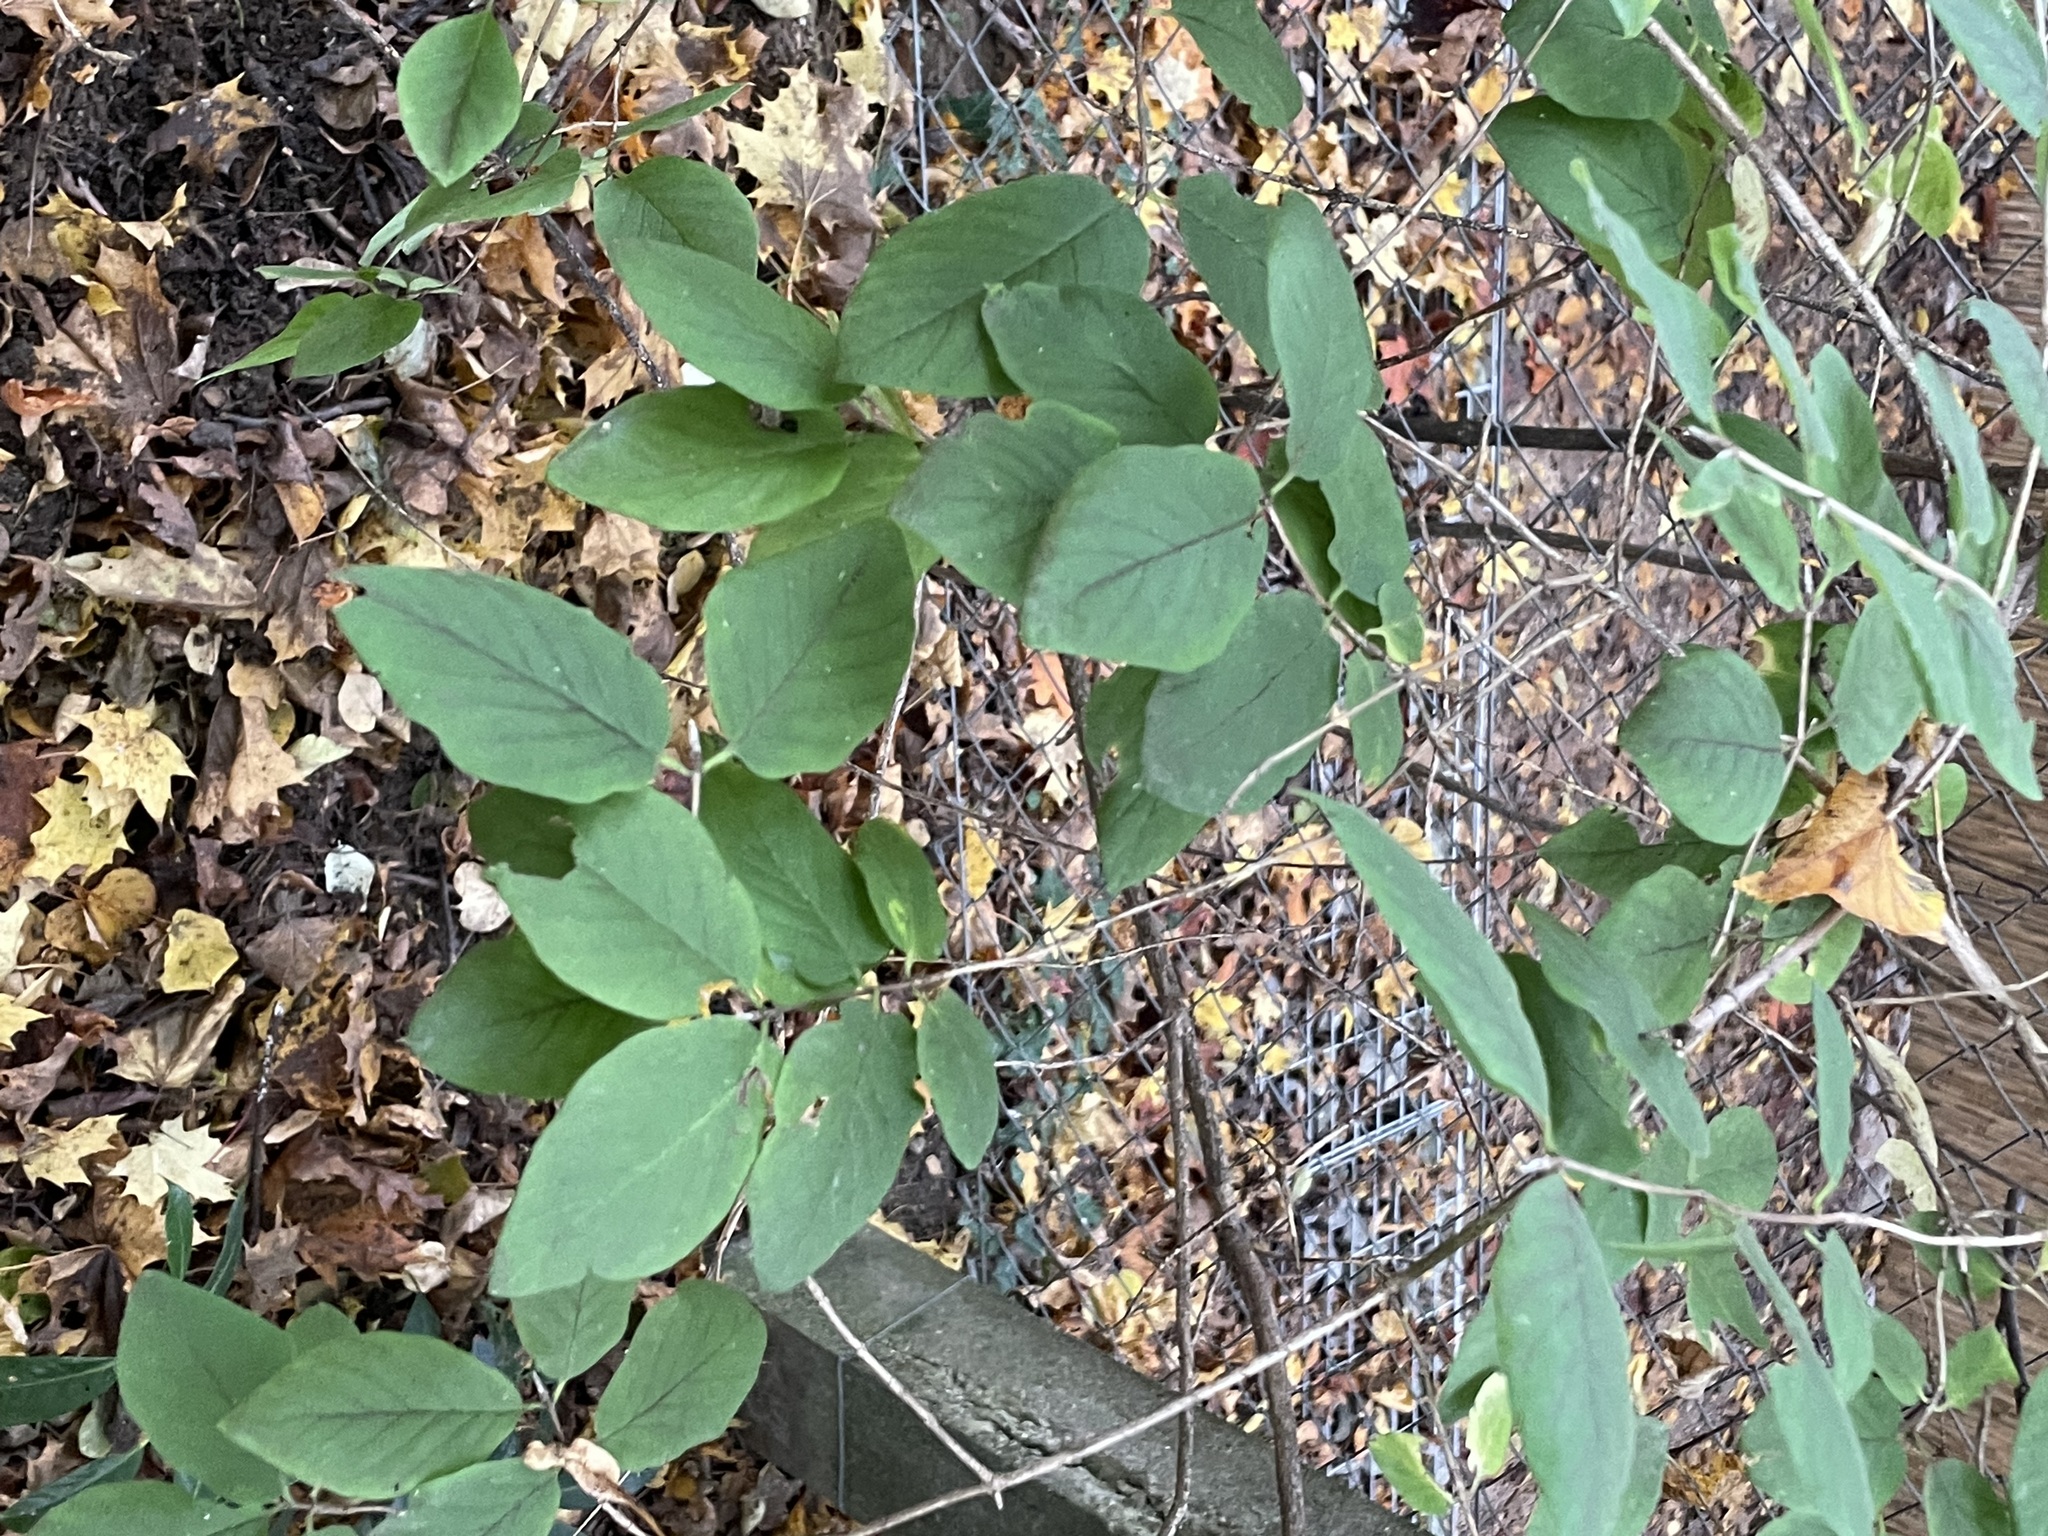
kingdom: Plantae
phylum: Tracheophyta
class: Magnoliopsida
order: Dipsacales
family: Caprifoliaceae
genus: Lonicera
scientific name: Lonicera xylosteum
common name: Fly honeysuckle
